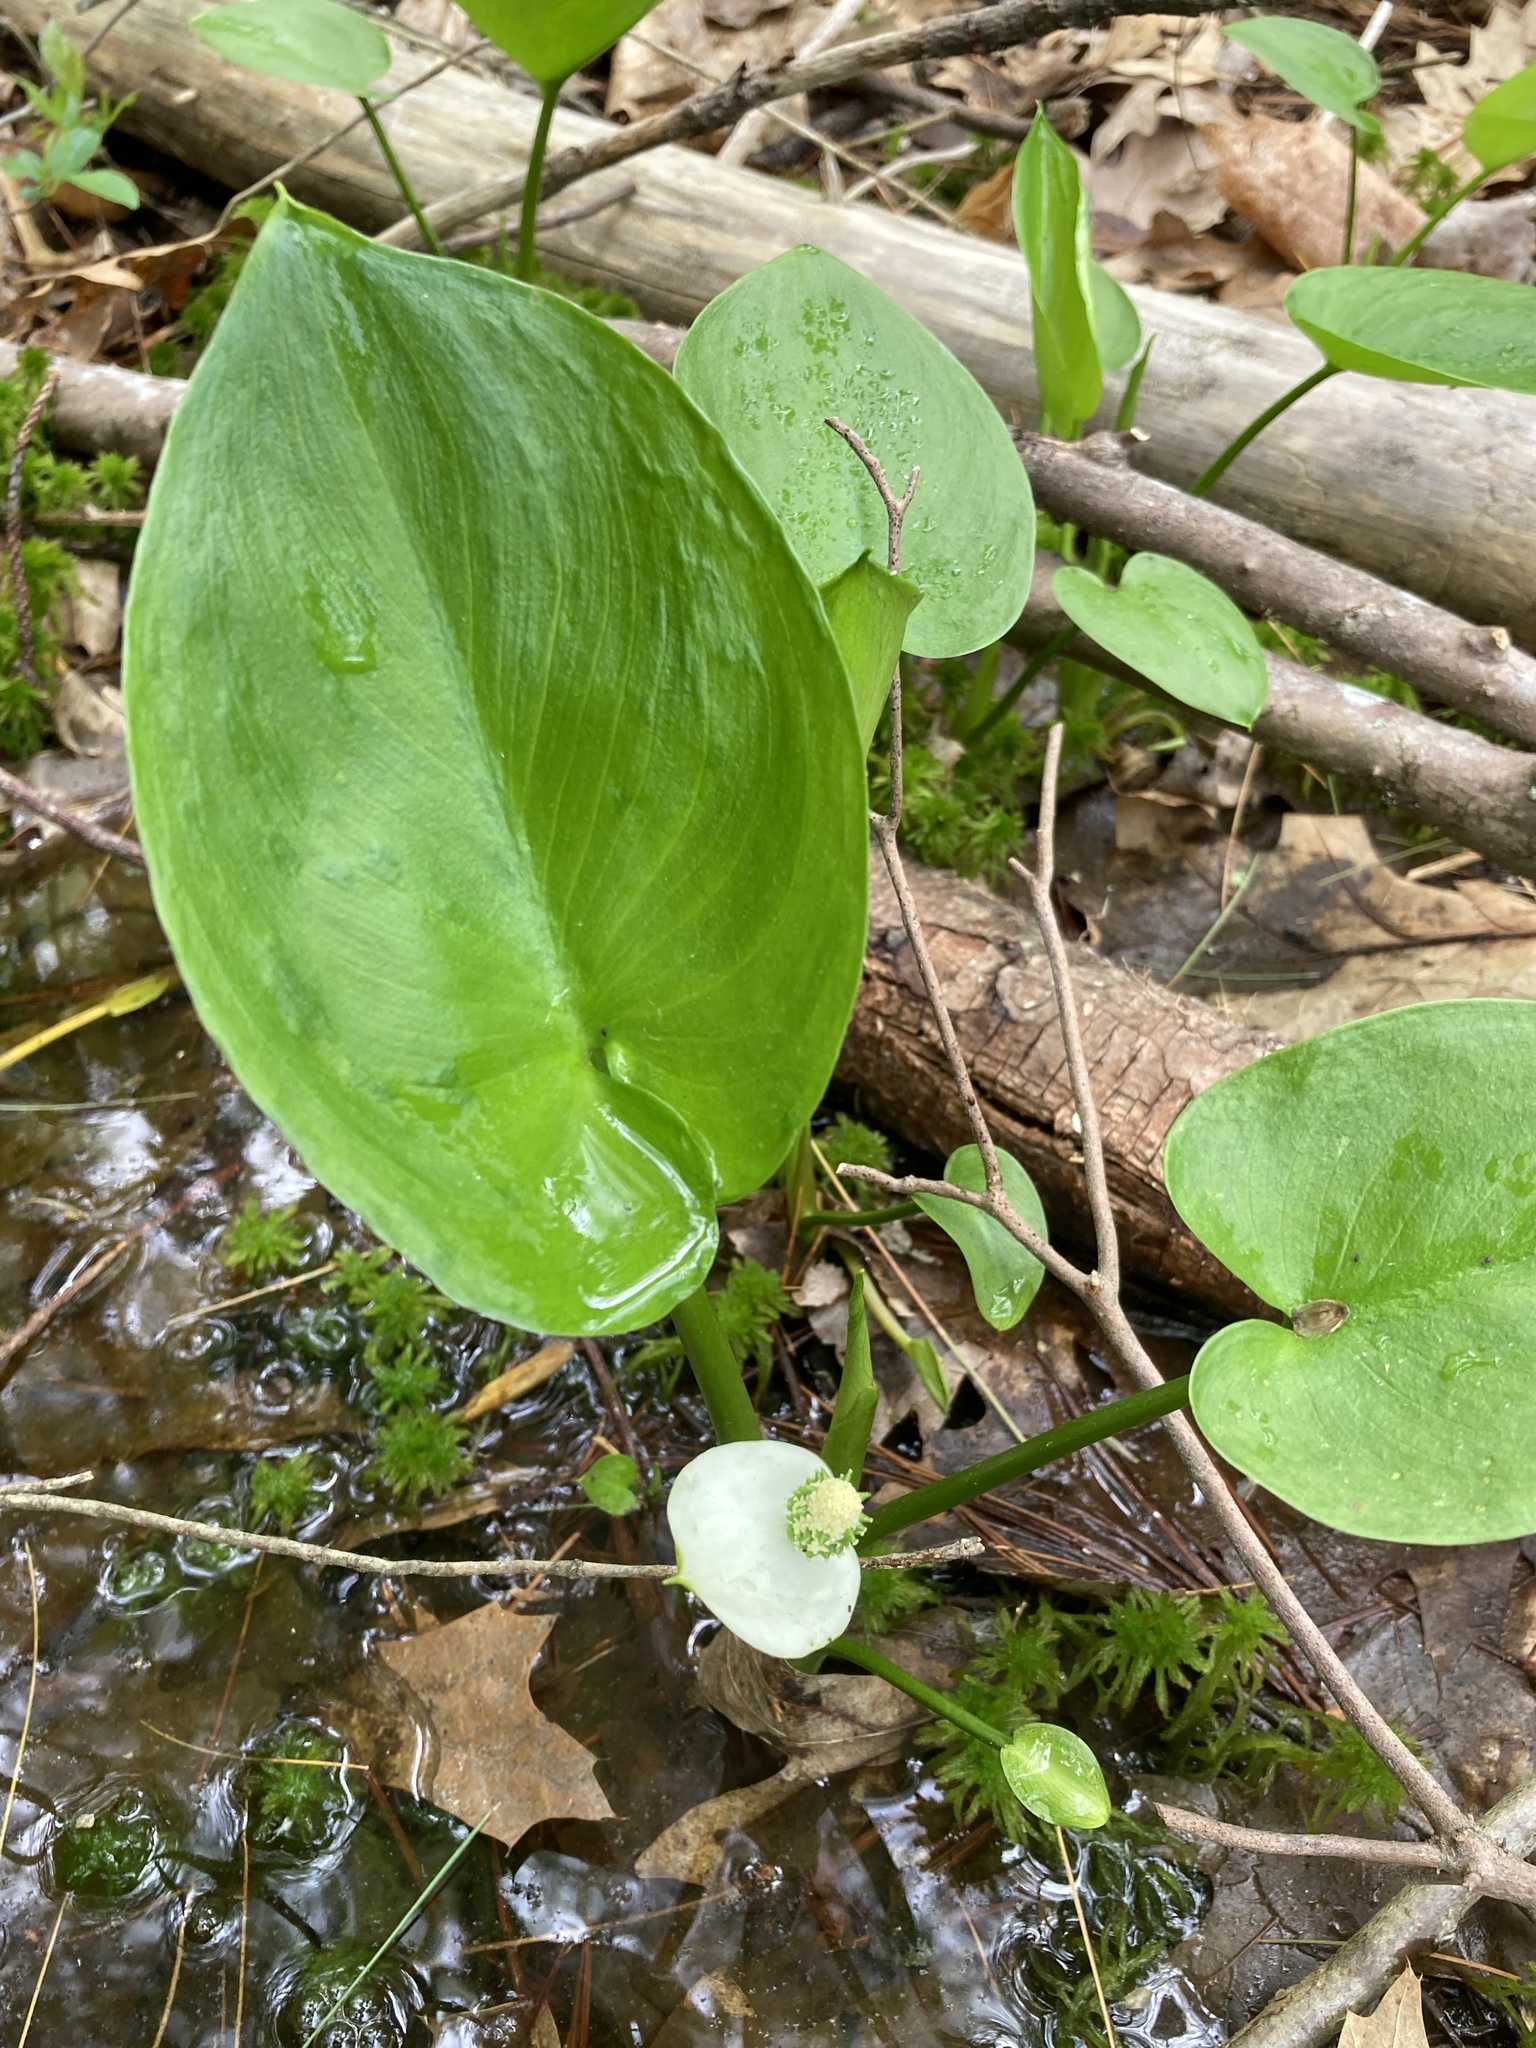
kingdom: Plantae
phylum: Tracheophyta
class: Liliopsida
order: Alismatales
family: Araceae
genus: Calla
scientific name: Calla palustris
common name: Bog arum
